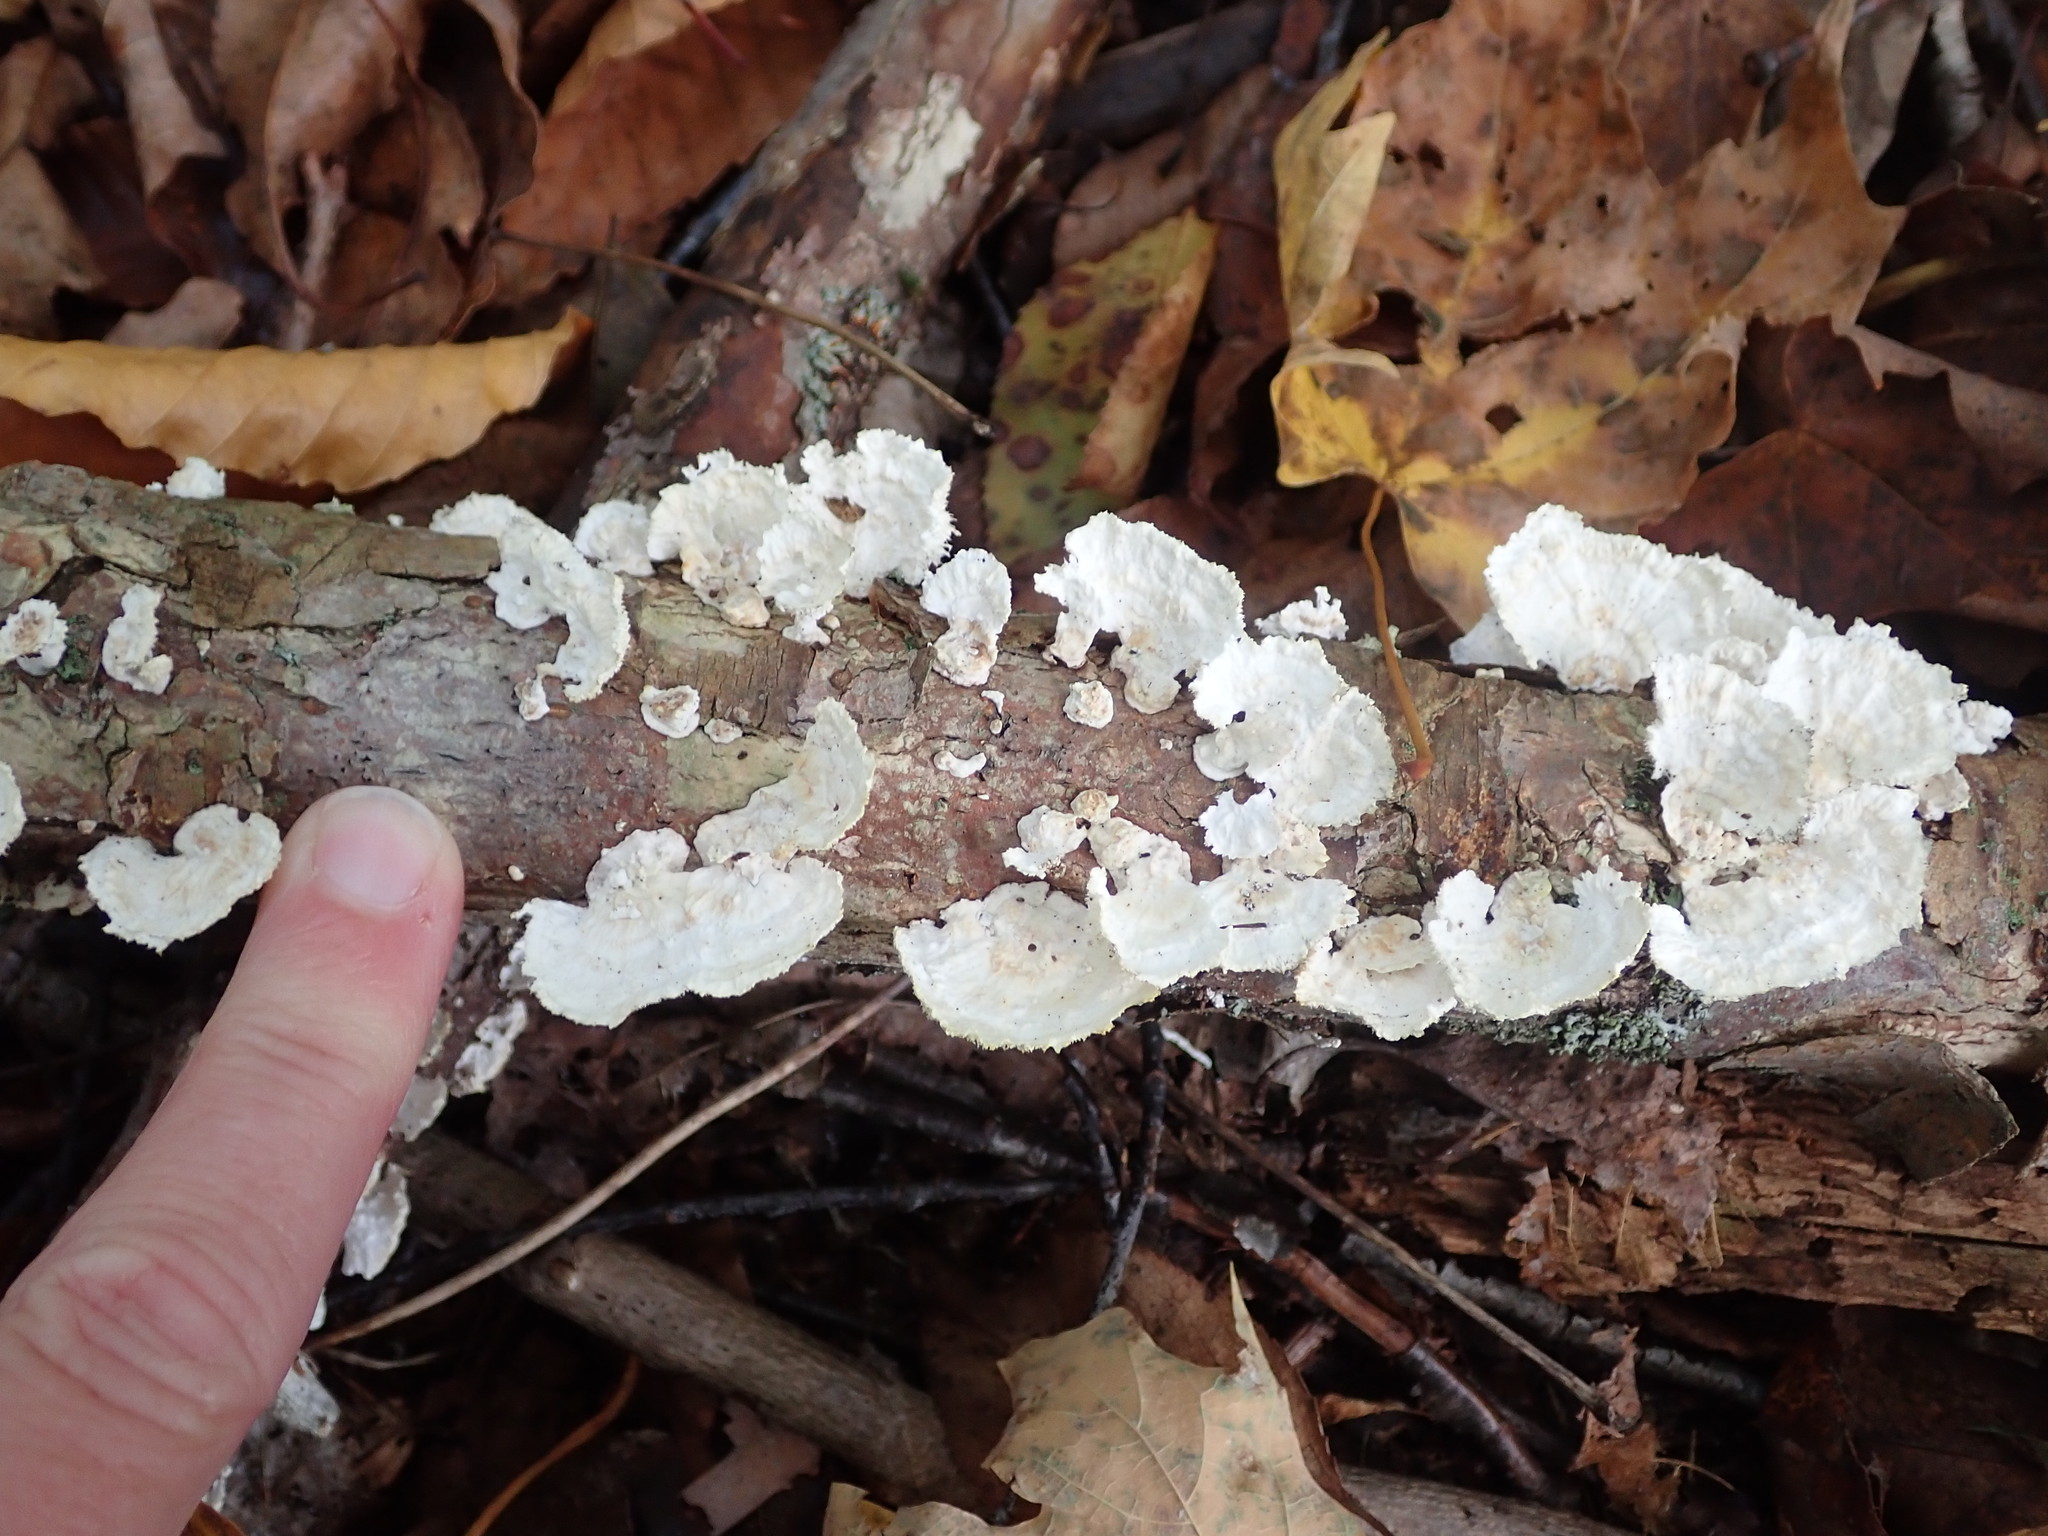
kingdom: Fungi
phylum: Basidiomycota
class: Agaricomycetes
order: Polyporales
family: Polyporaceae
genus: Poronidulus
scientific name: Poronidulus conchifer
